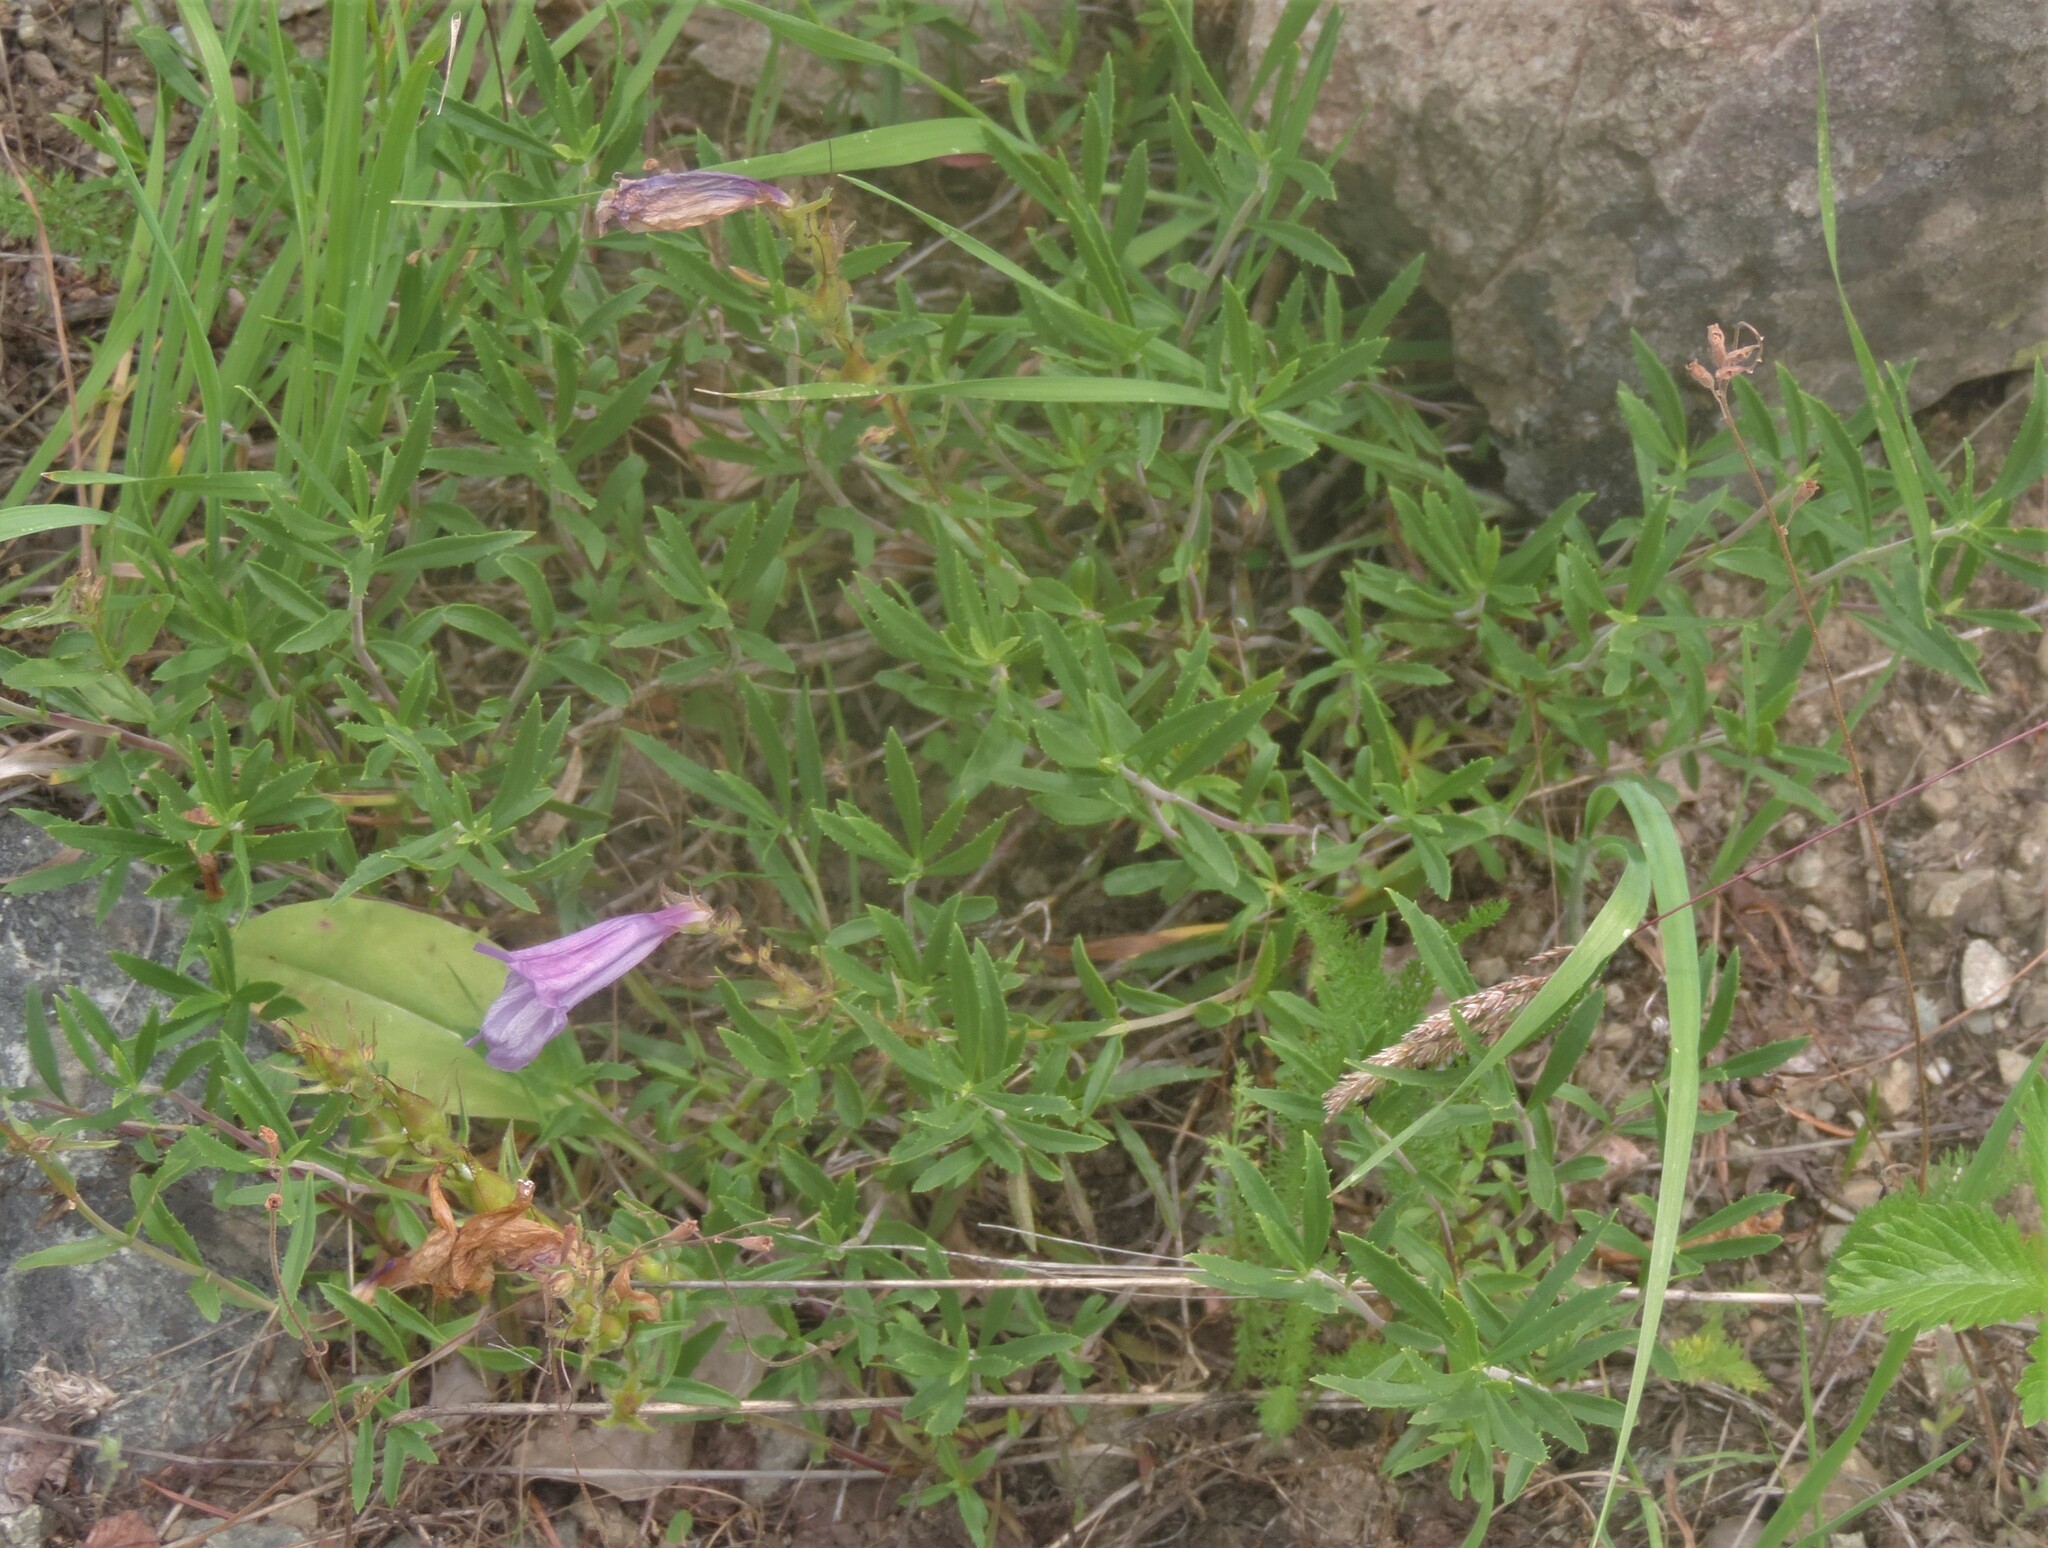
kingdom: Plantae
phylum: Tracheophyta
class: Magnoliopsida
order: Lamiales
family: Plantaginaceae
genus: Penstemon
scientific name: Penstemon fruticosus
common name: Bush penstemon
